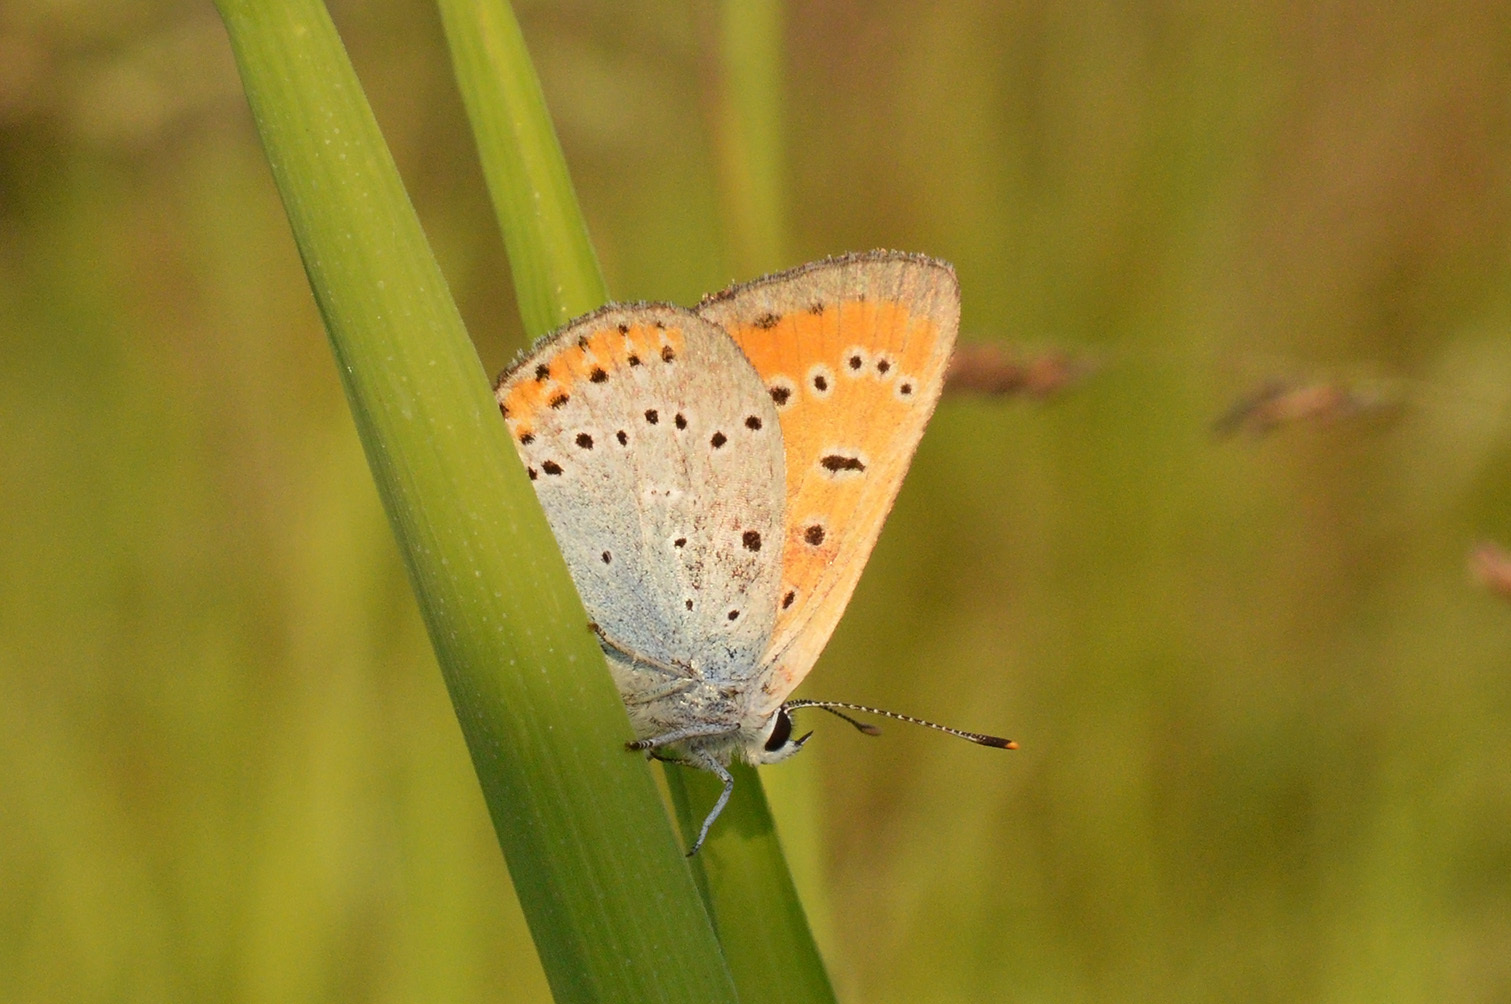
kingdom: Animalia
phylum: Arthropoda
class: Insecta
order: Lepidoptera
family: Lycaenidae
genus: Lycaena
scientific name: Lycaena dispar
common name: Large copper
